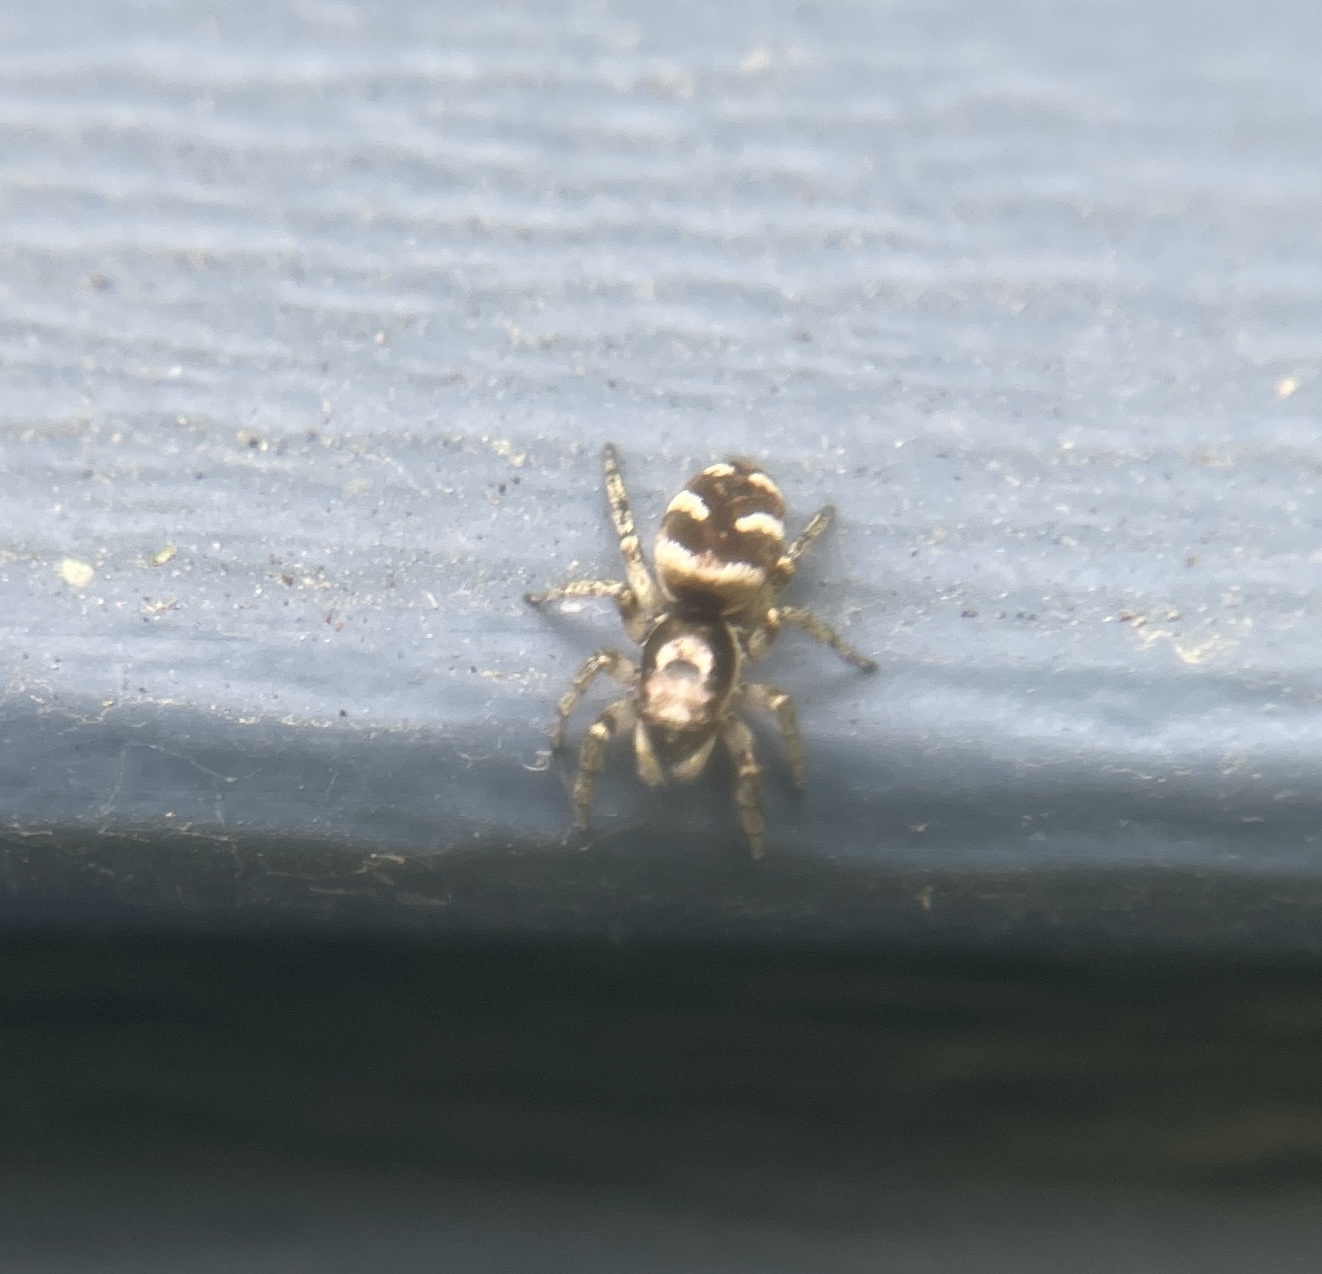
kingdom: Animalia
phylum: Arthropoda
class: Arachnida
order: Araneae
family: Salticidae
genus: Salticus
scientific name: Salticus scenicus
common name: Zebra jumper
